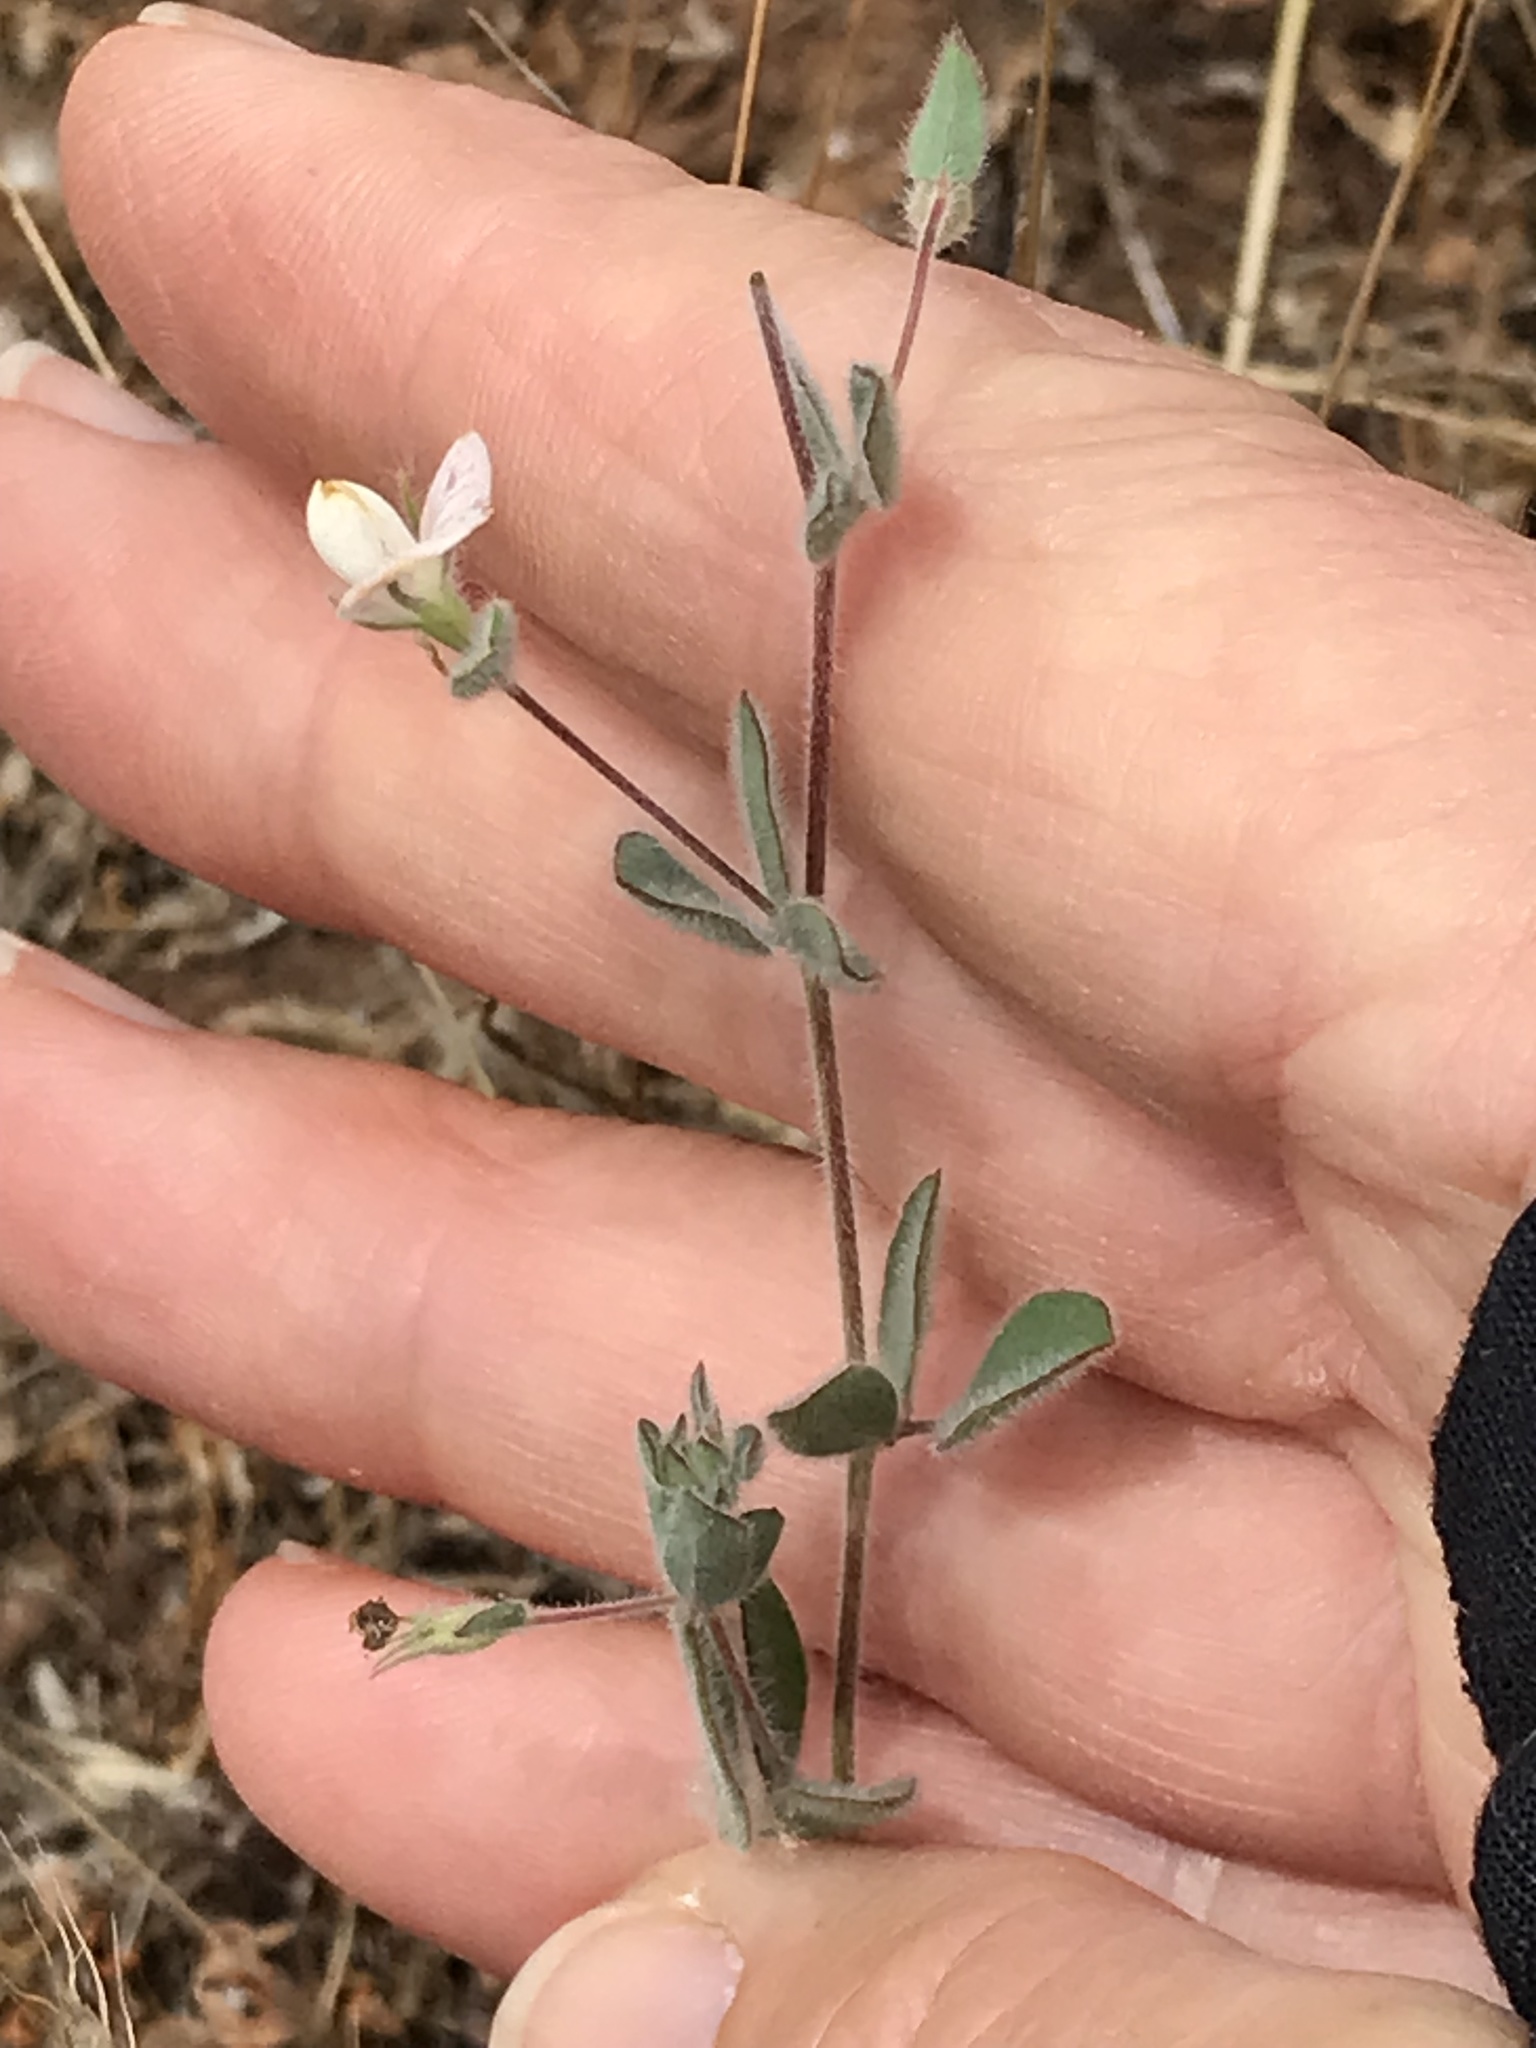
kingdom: Plantae
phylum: Tracheophyta
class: Magnoliopsida
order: Fabales
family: Fabaceae
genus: Acmispon
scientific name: Acmispon americanus
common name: American bird's-foot trefoil
